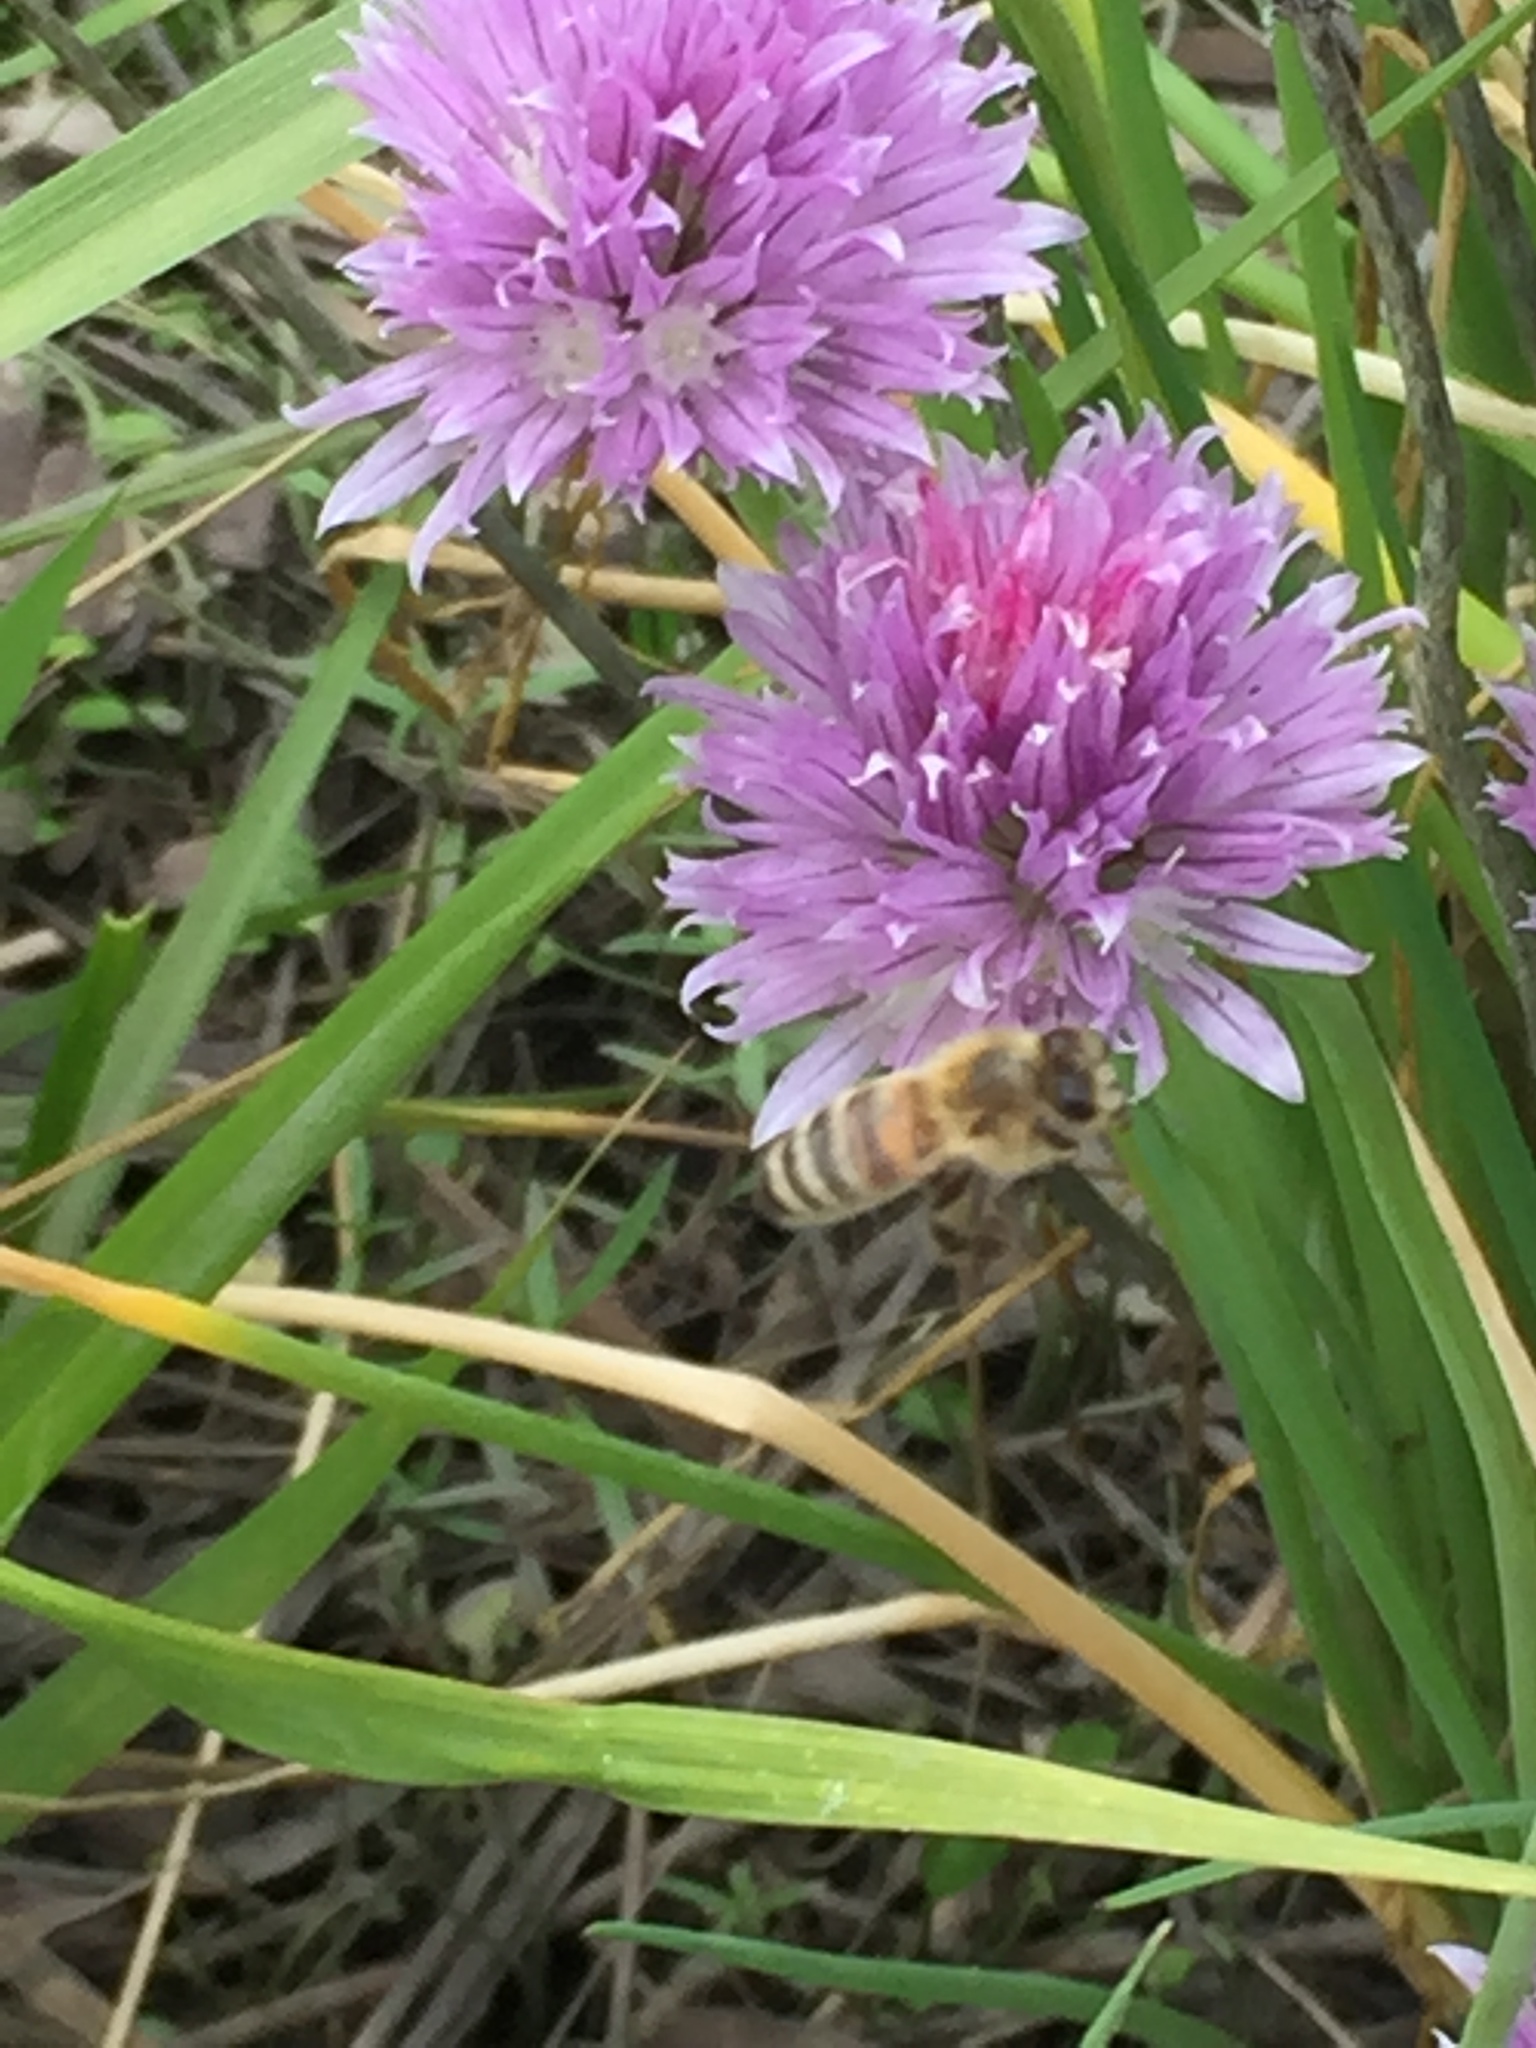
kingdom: Animalia
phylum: Arthropoda
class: Insecta
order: Hymenoptera
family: Apidae
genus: Apis
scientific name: Apis mellifera
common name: Honey bee
